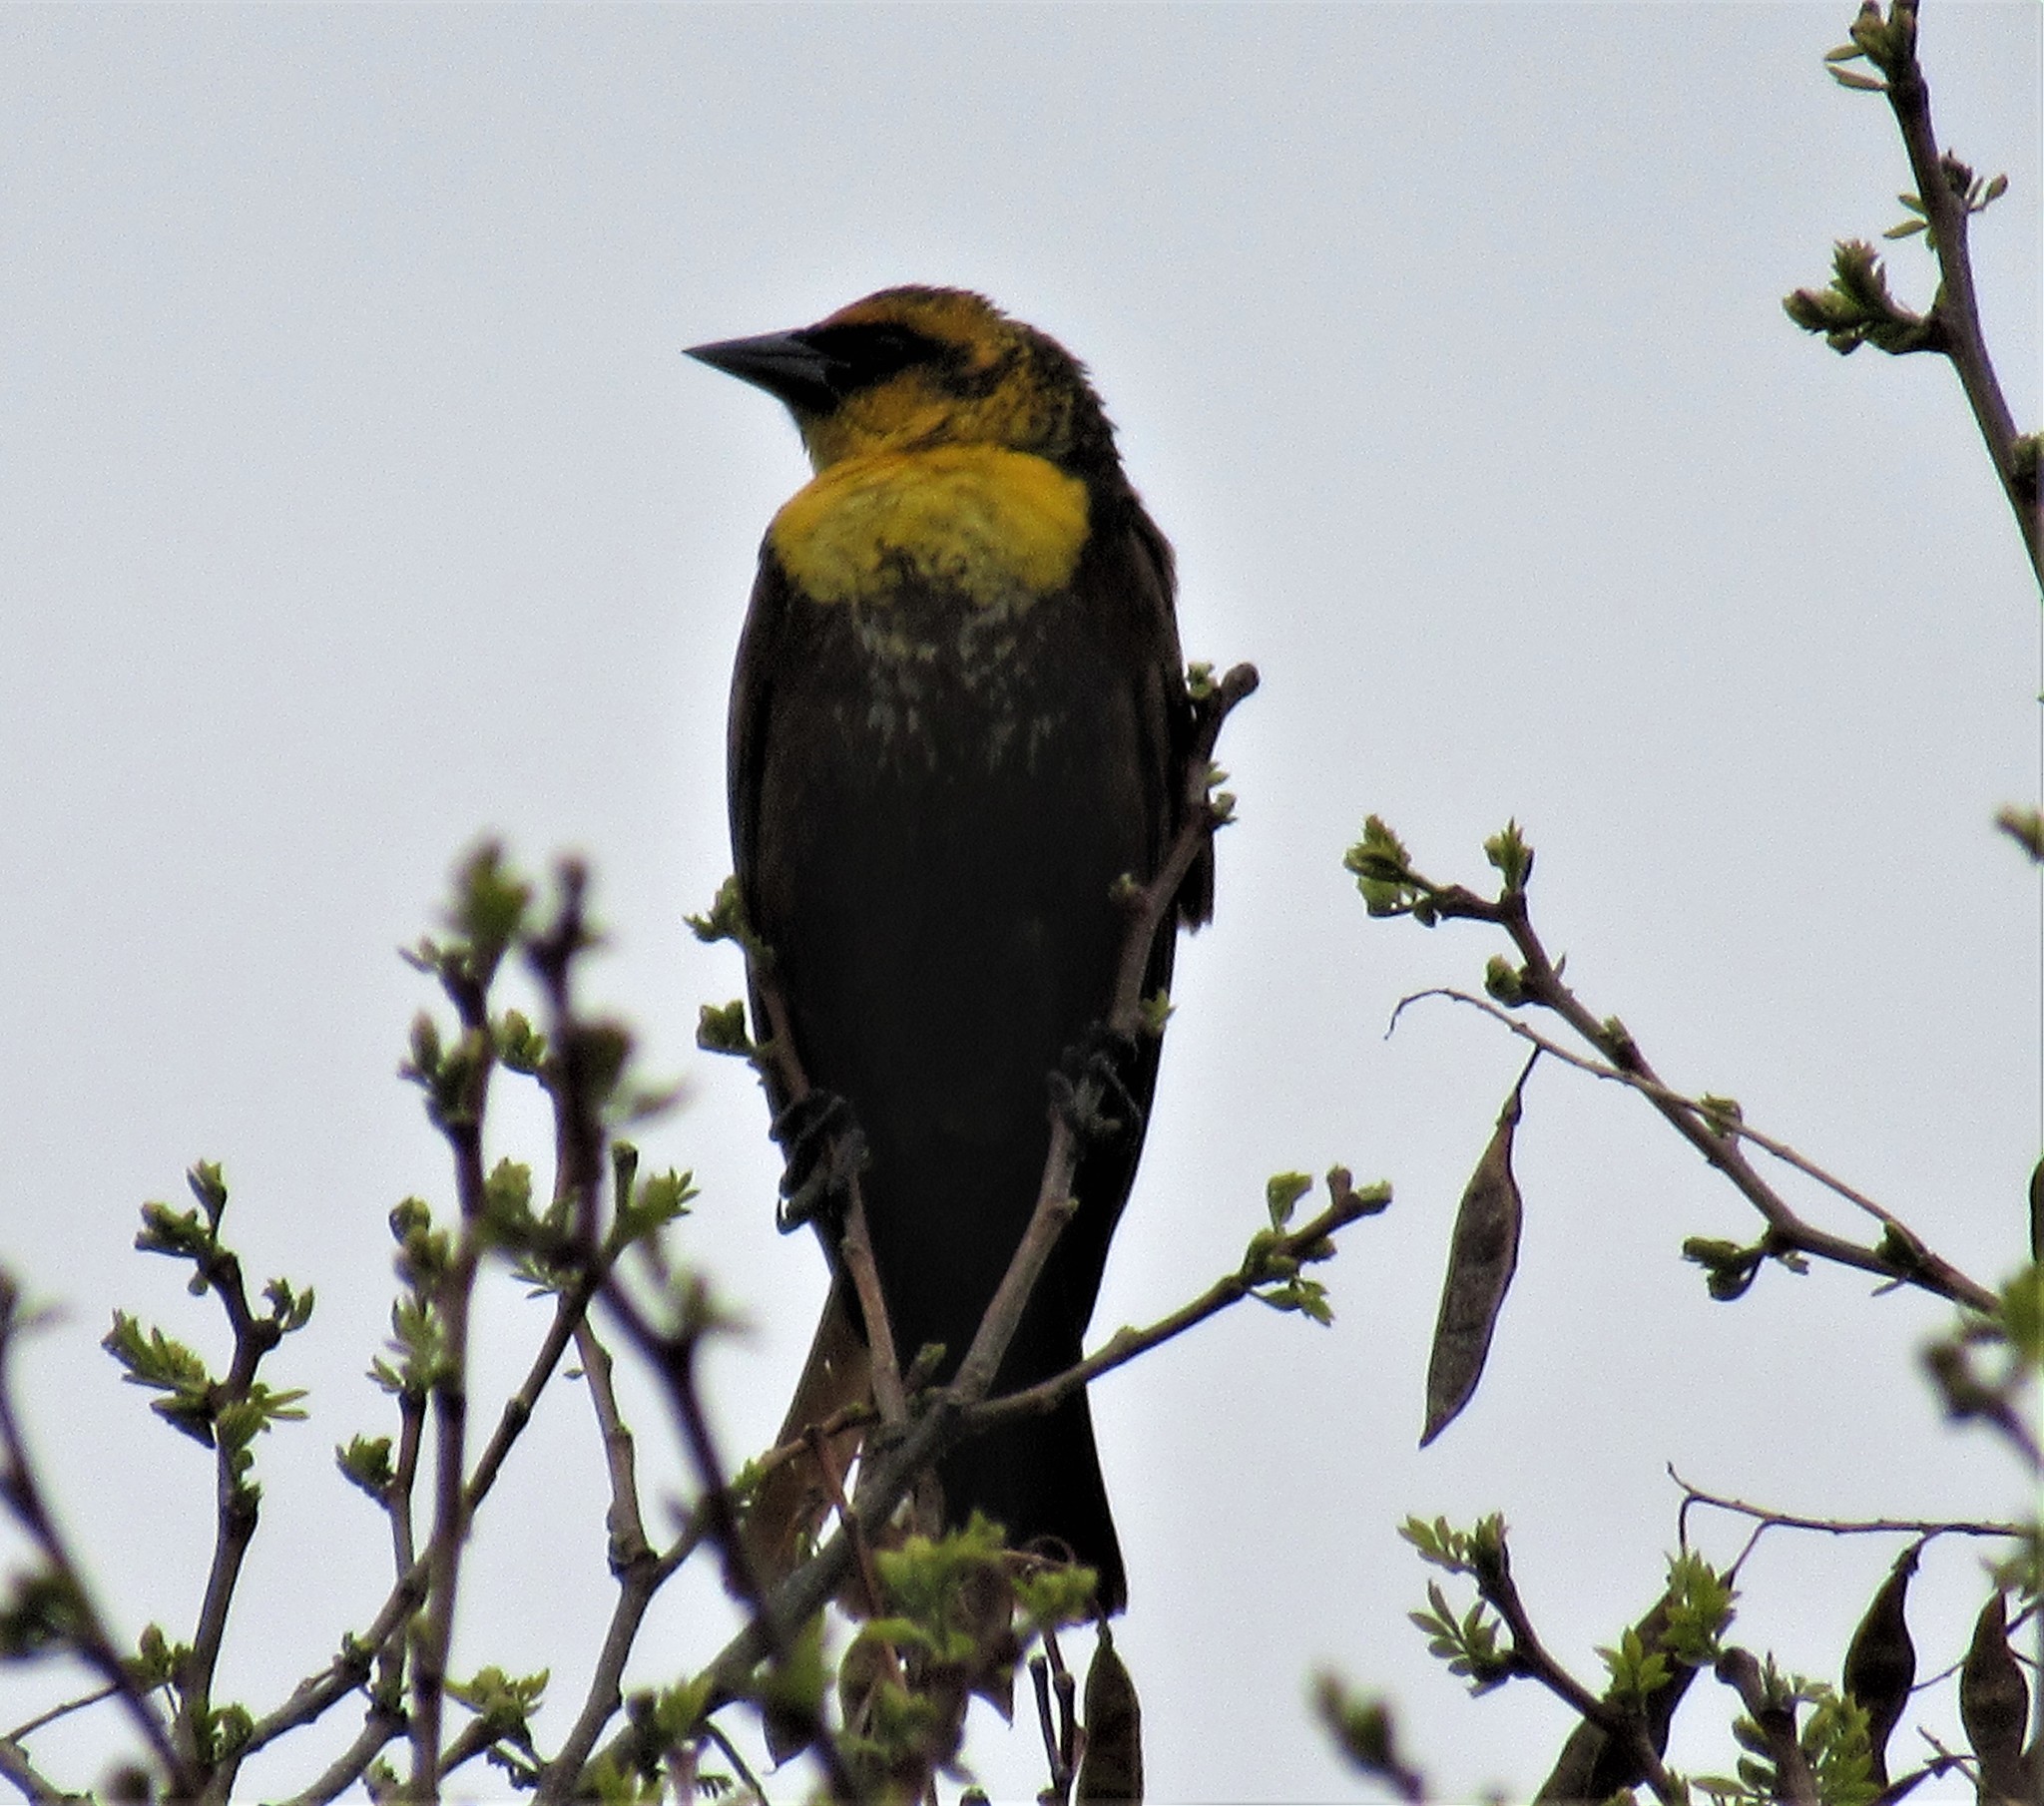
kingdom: Animalia
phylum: Chordata
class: Aves
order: Passeriformes
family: Icteridae
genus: Xanthocephalus
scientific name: Xanthocephalus xanthocephalus
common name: Yellow-headed blackbird
